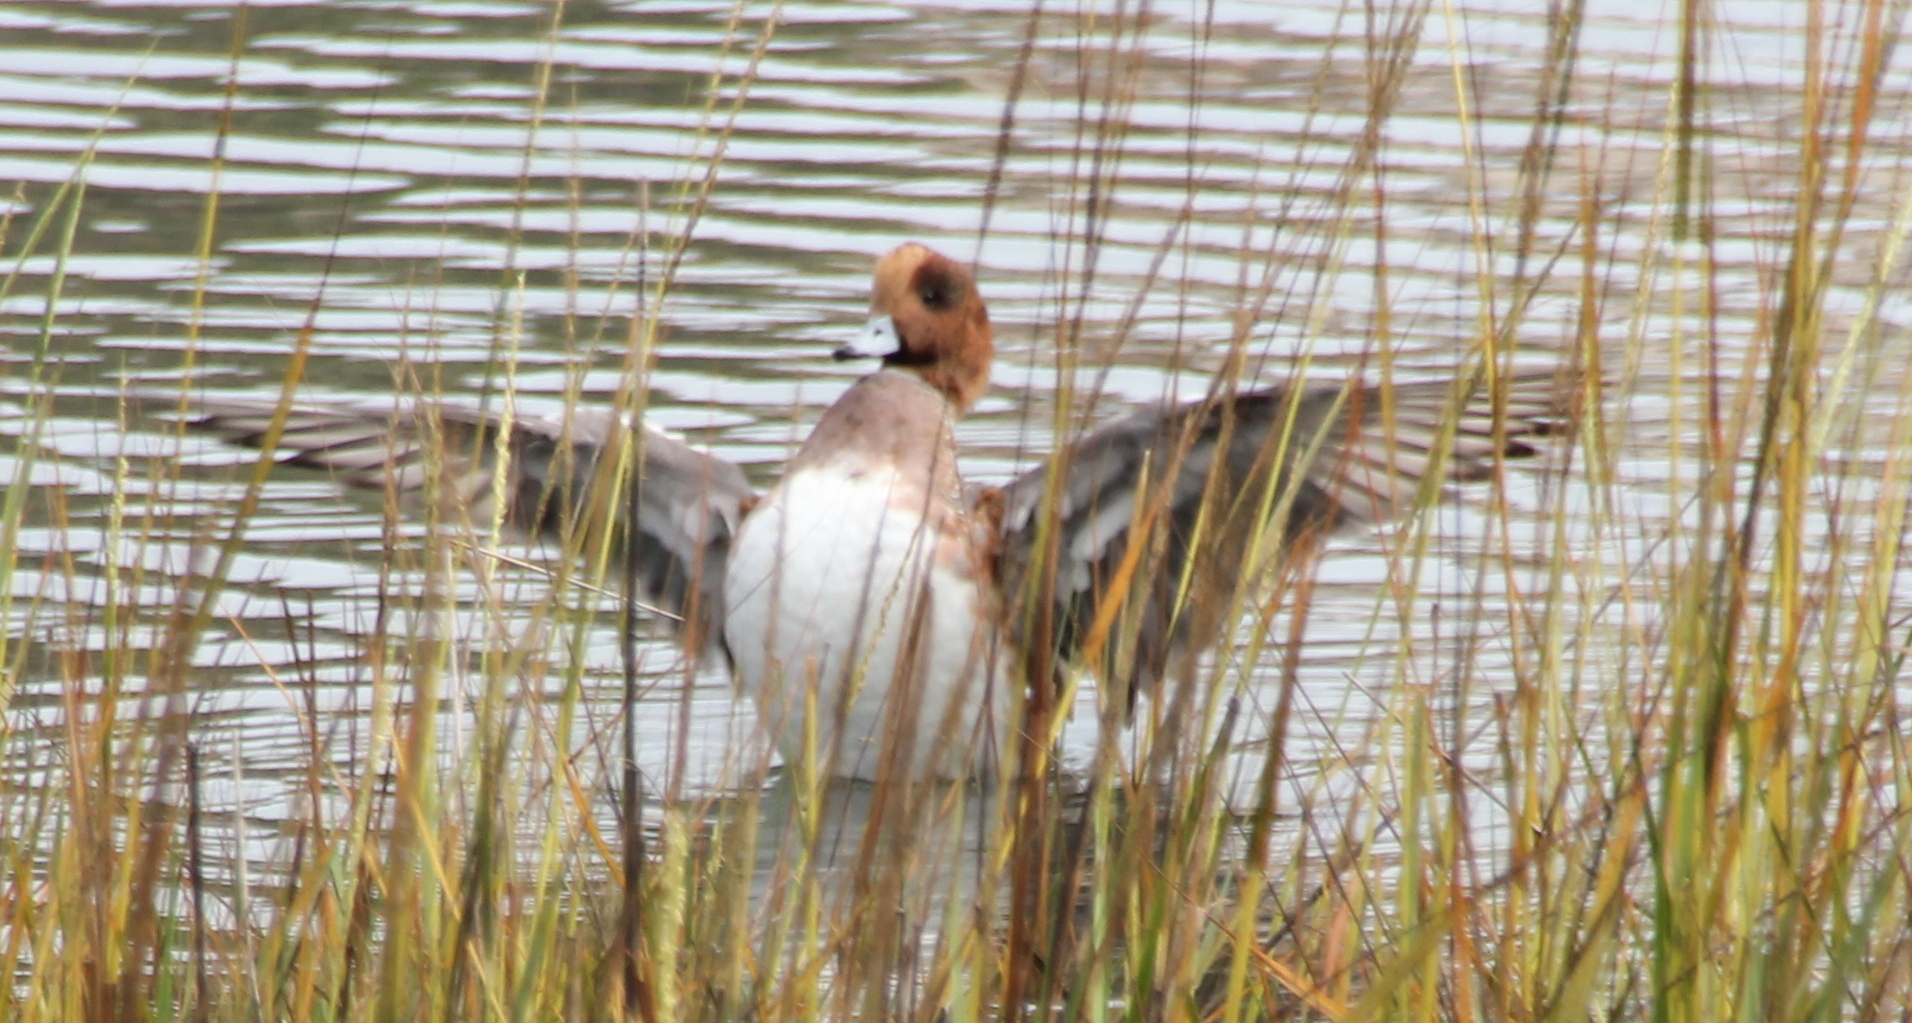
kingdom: Animalia
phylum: Chordata
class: Aves
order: Anseriformes
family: Anatidae
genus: Mareca
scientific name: Mareca penelope
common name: Eurasian wigeon
